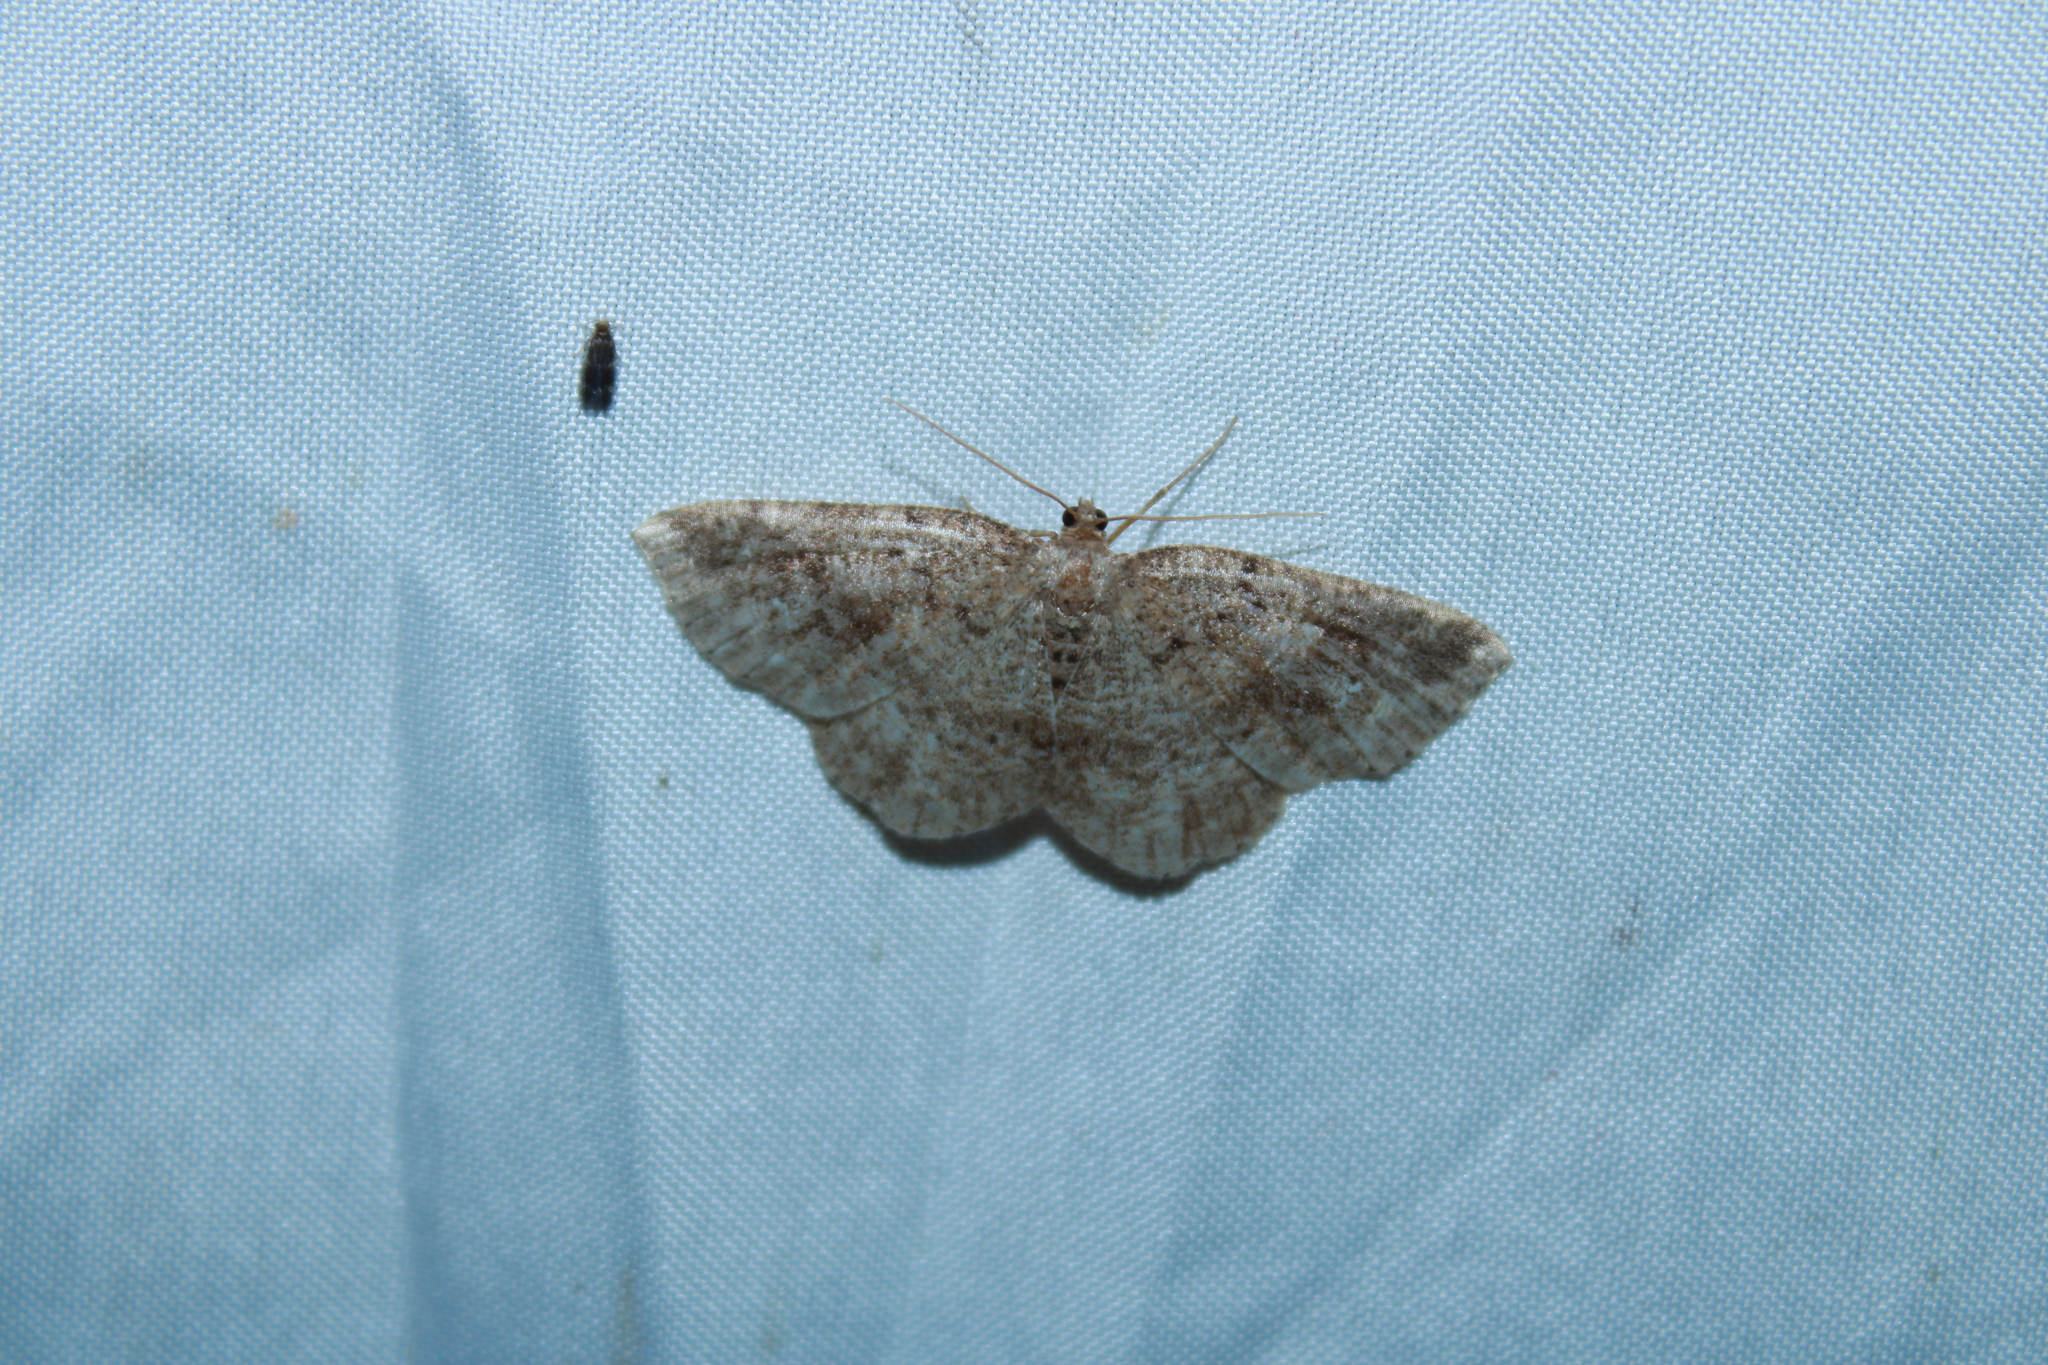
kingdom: Animalia
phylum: Arthropoda
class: Insecta
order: Lepidoptera
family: Geometridae
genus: Homochlodes
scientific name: Homochlodes fritillaria
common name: Pale homochlodes
